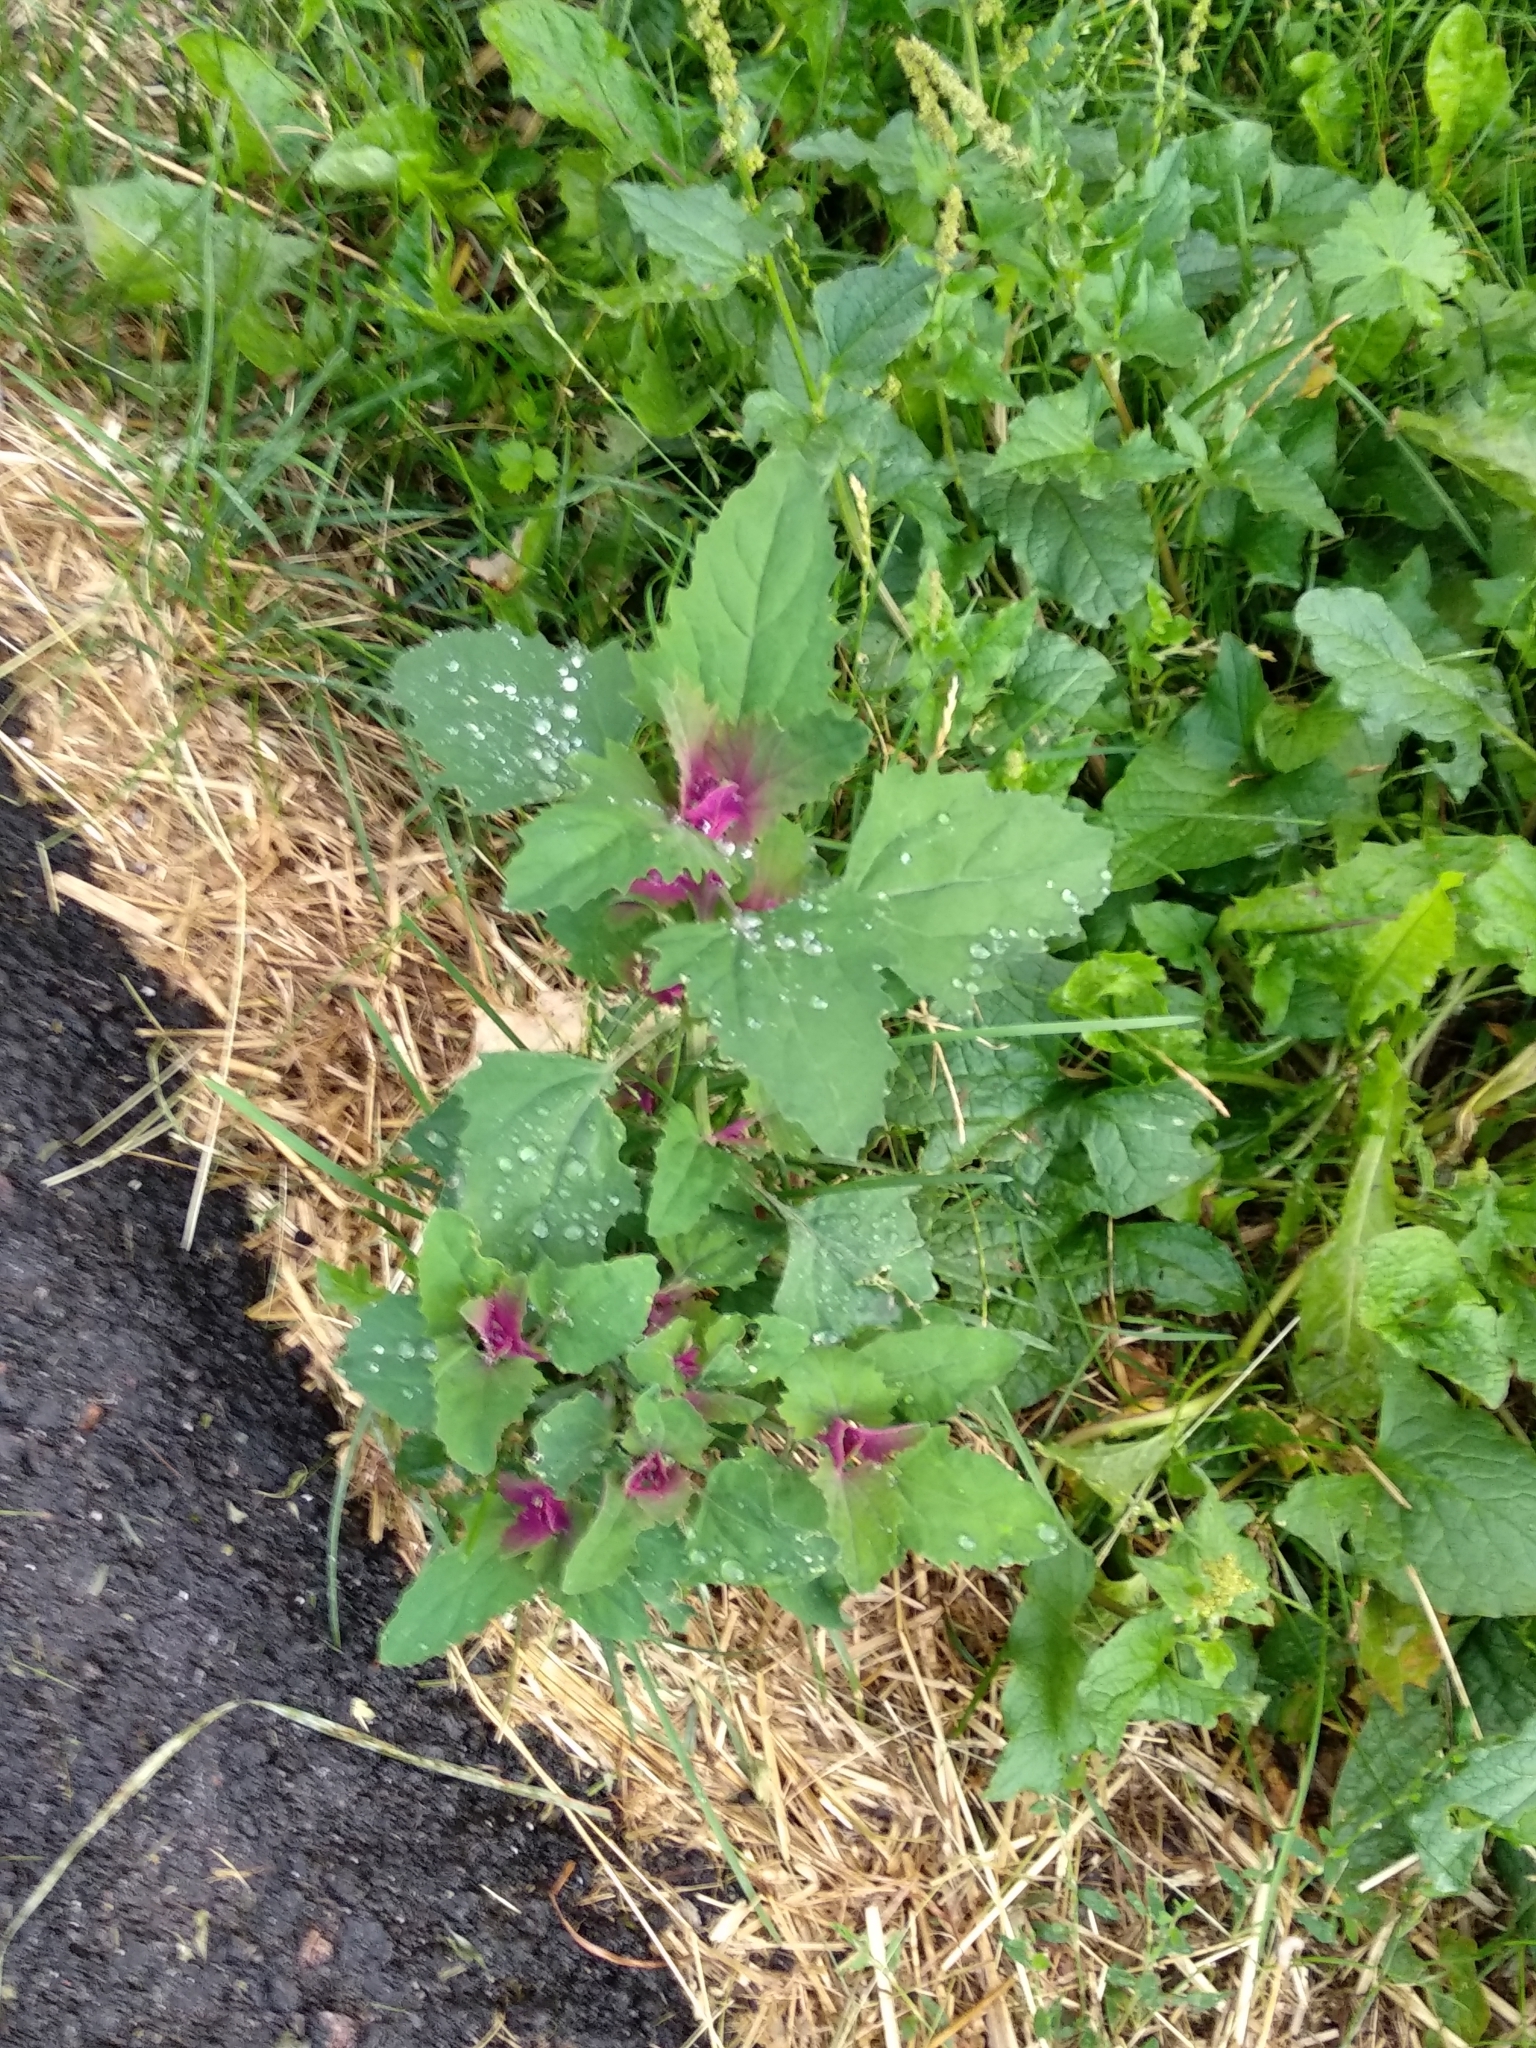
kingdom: Plantae
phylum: Tracheophyta
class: Magnoliopsida
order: Caryophyllales
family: Amaranthaceae
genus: Chenopodium
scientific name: Chenopodium giganteum
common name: Magentaspreen
